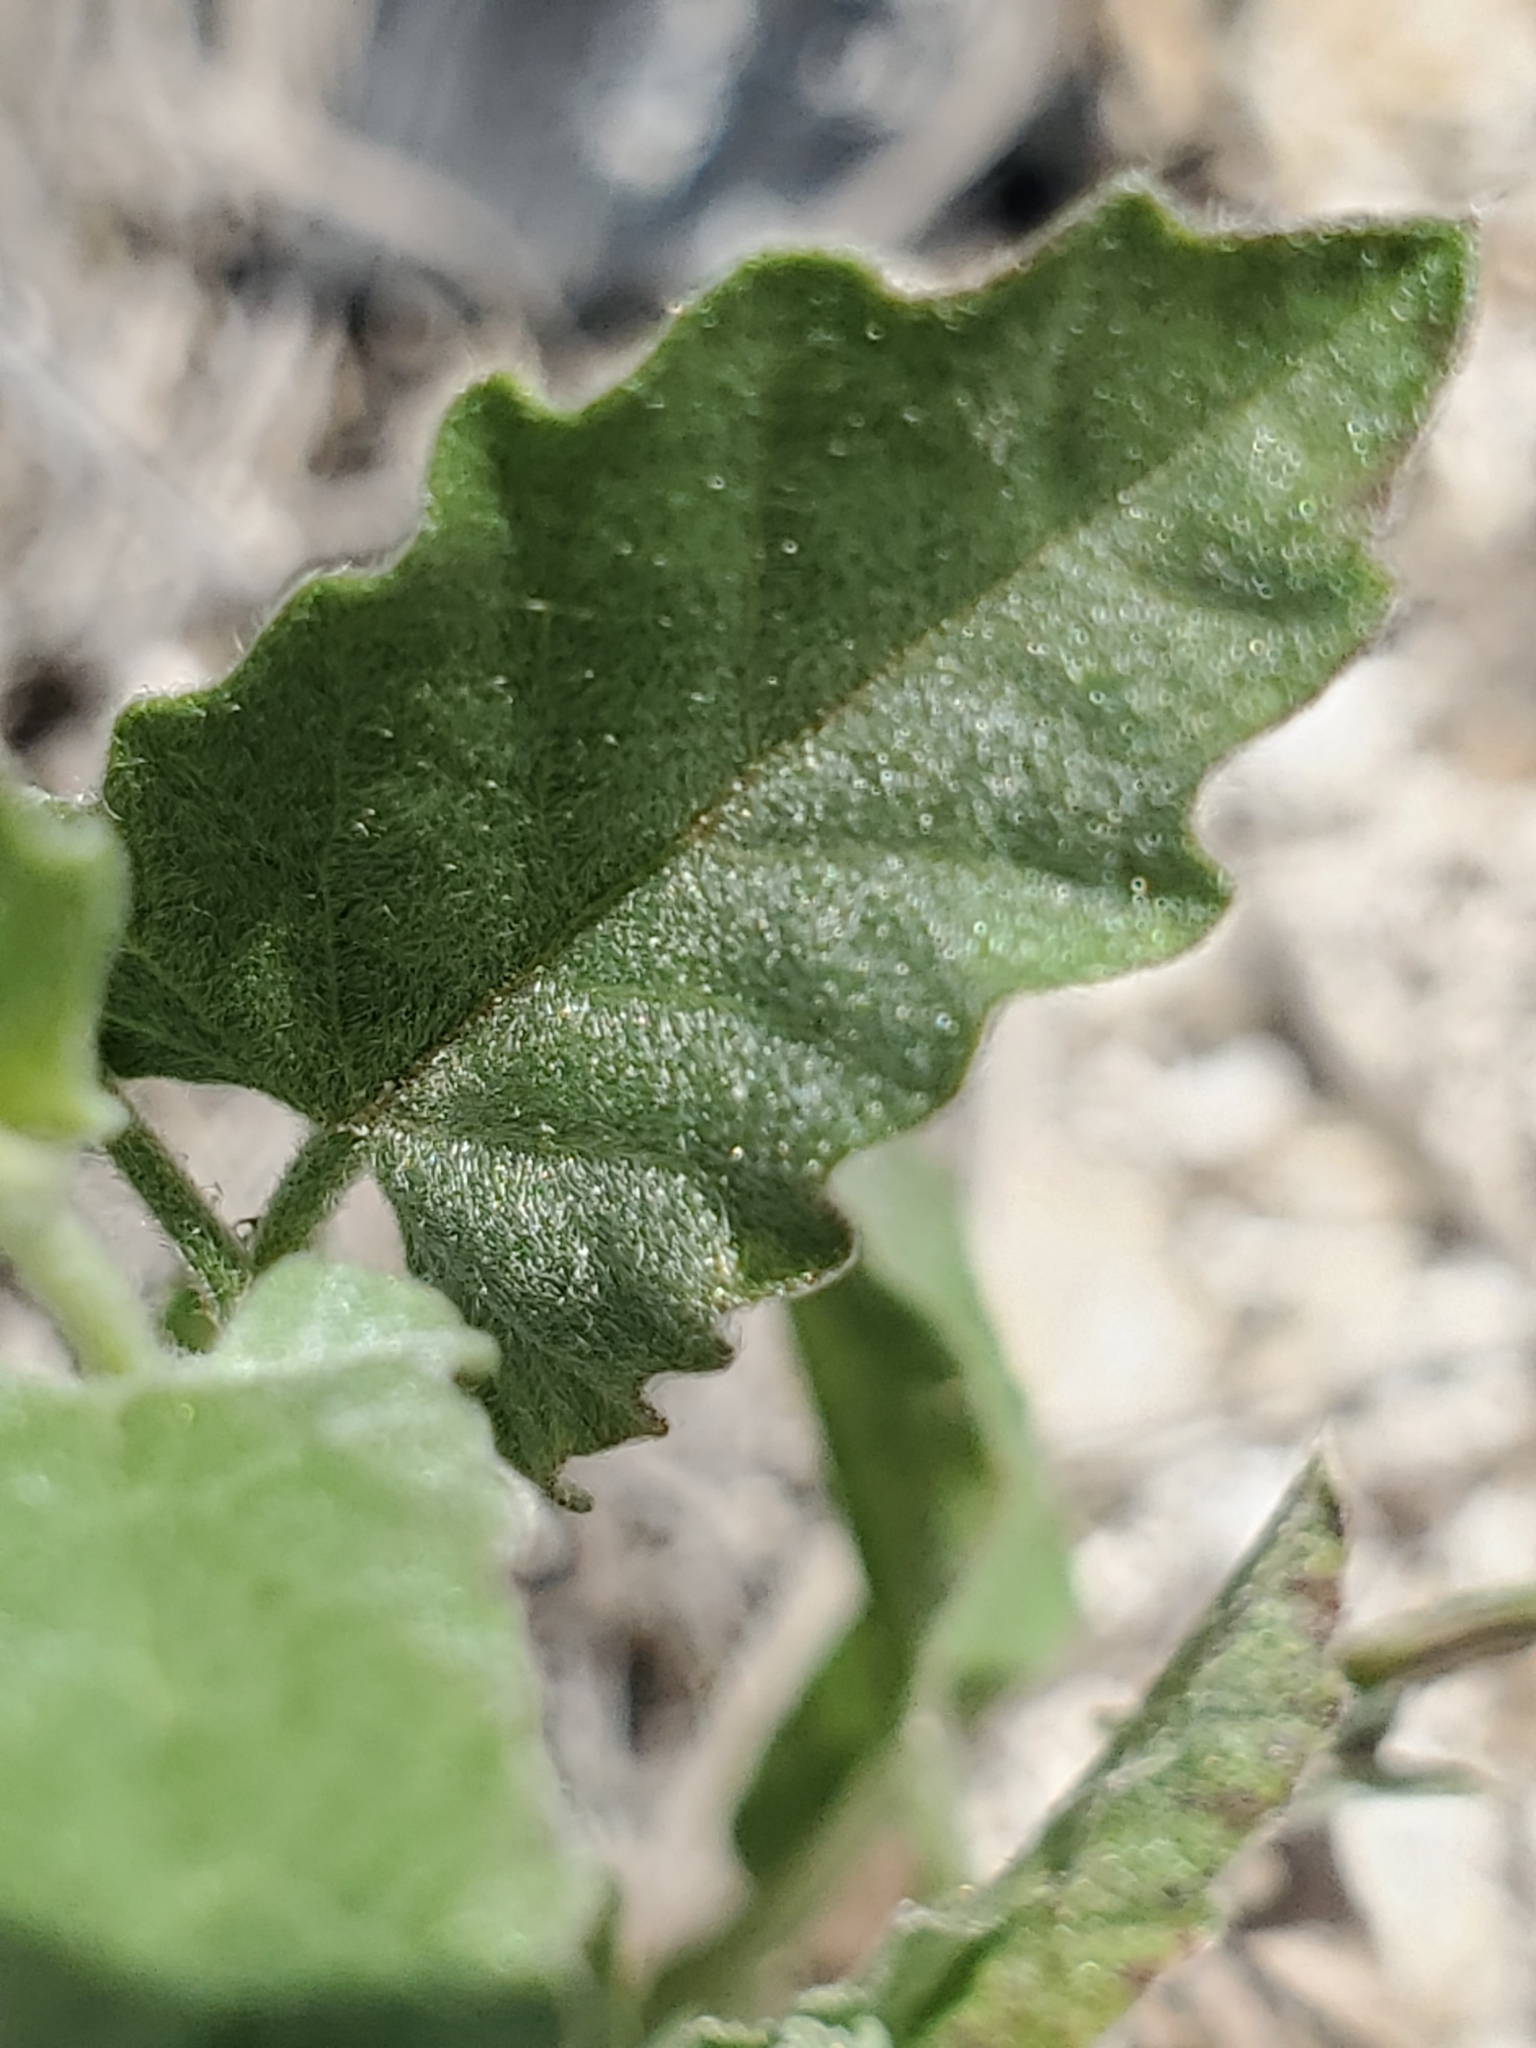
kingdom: Plantae
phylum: Tracheophyta
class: Magnoliopsida
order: Solanales
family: Convolvulaceae
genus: Convolvulus
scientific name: Convolvulus equitans
